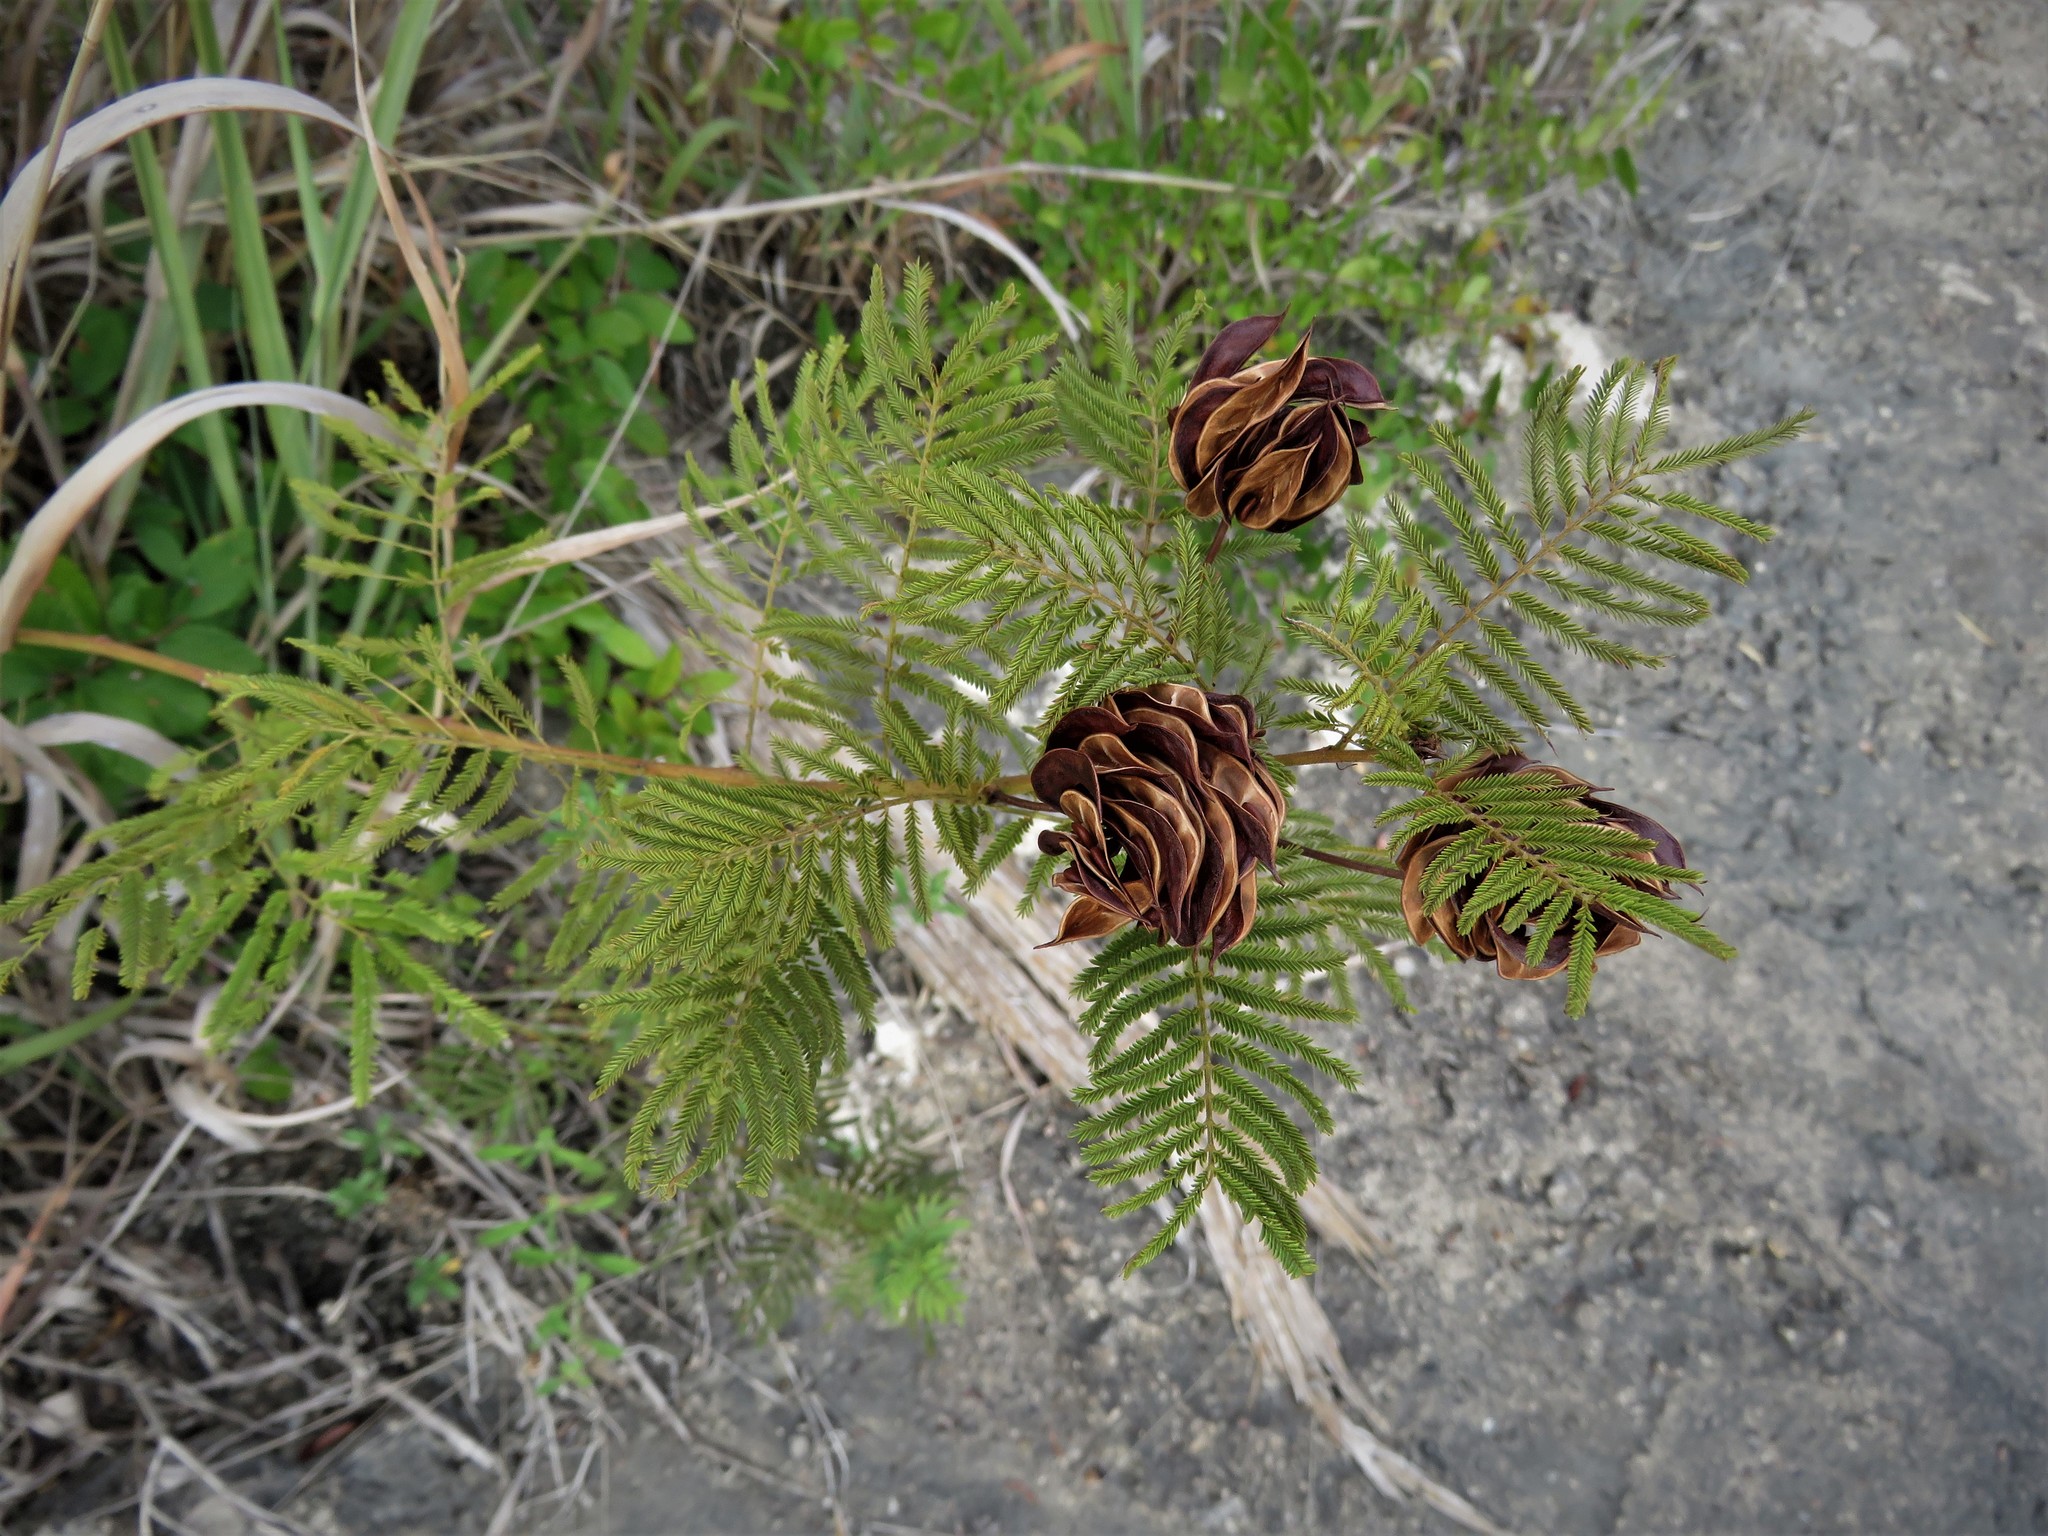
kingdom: Plantae
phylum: Tracheophyta
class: Magnoliopsida
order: Fabales
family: Fabaceae
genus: Desmanthus
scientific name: Desmanthus illinoensis
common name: Illinois bundle-flower
